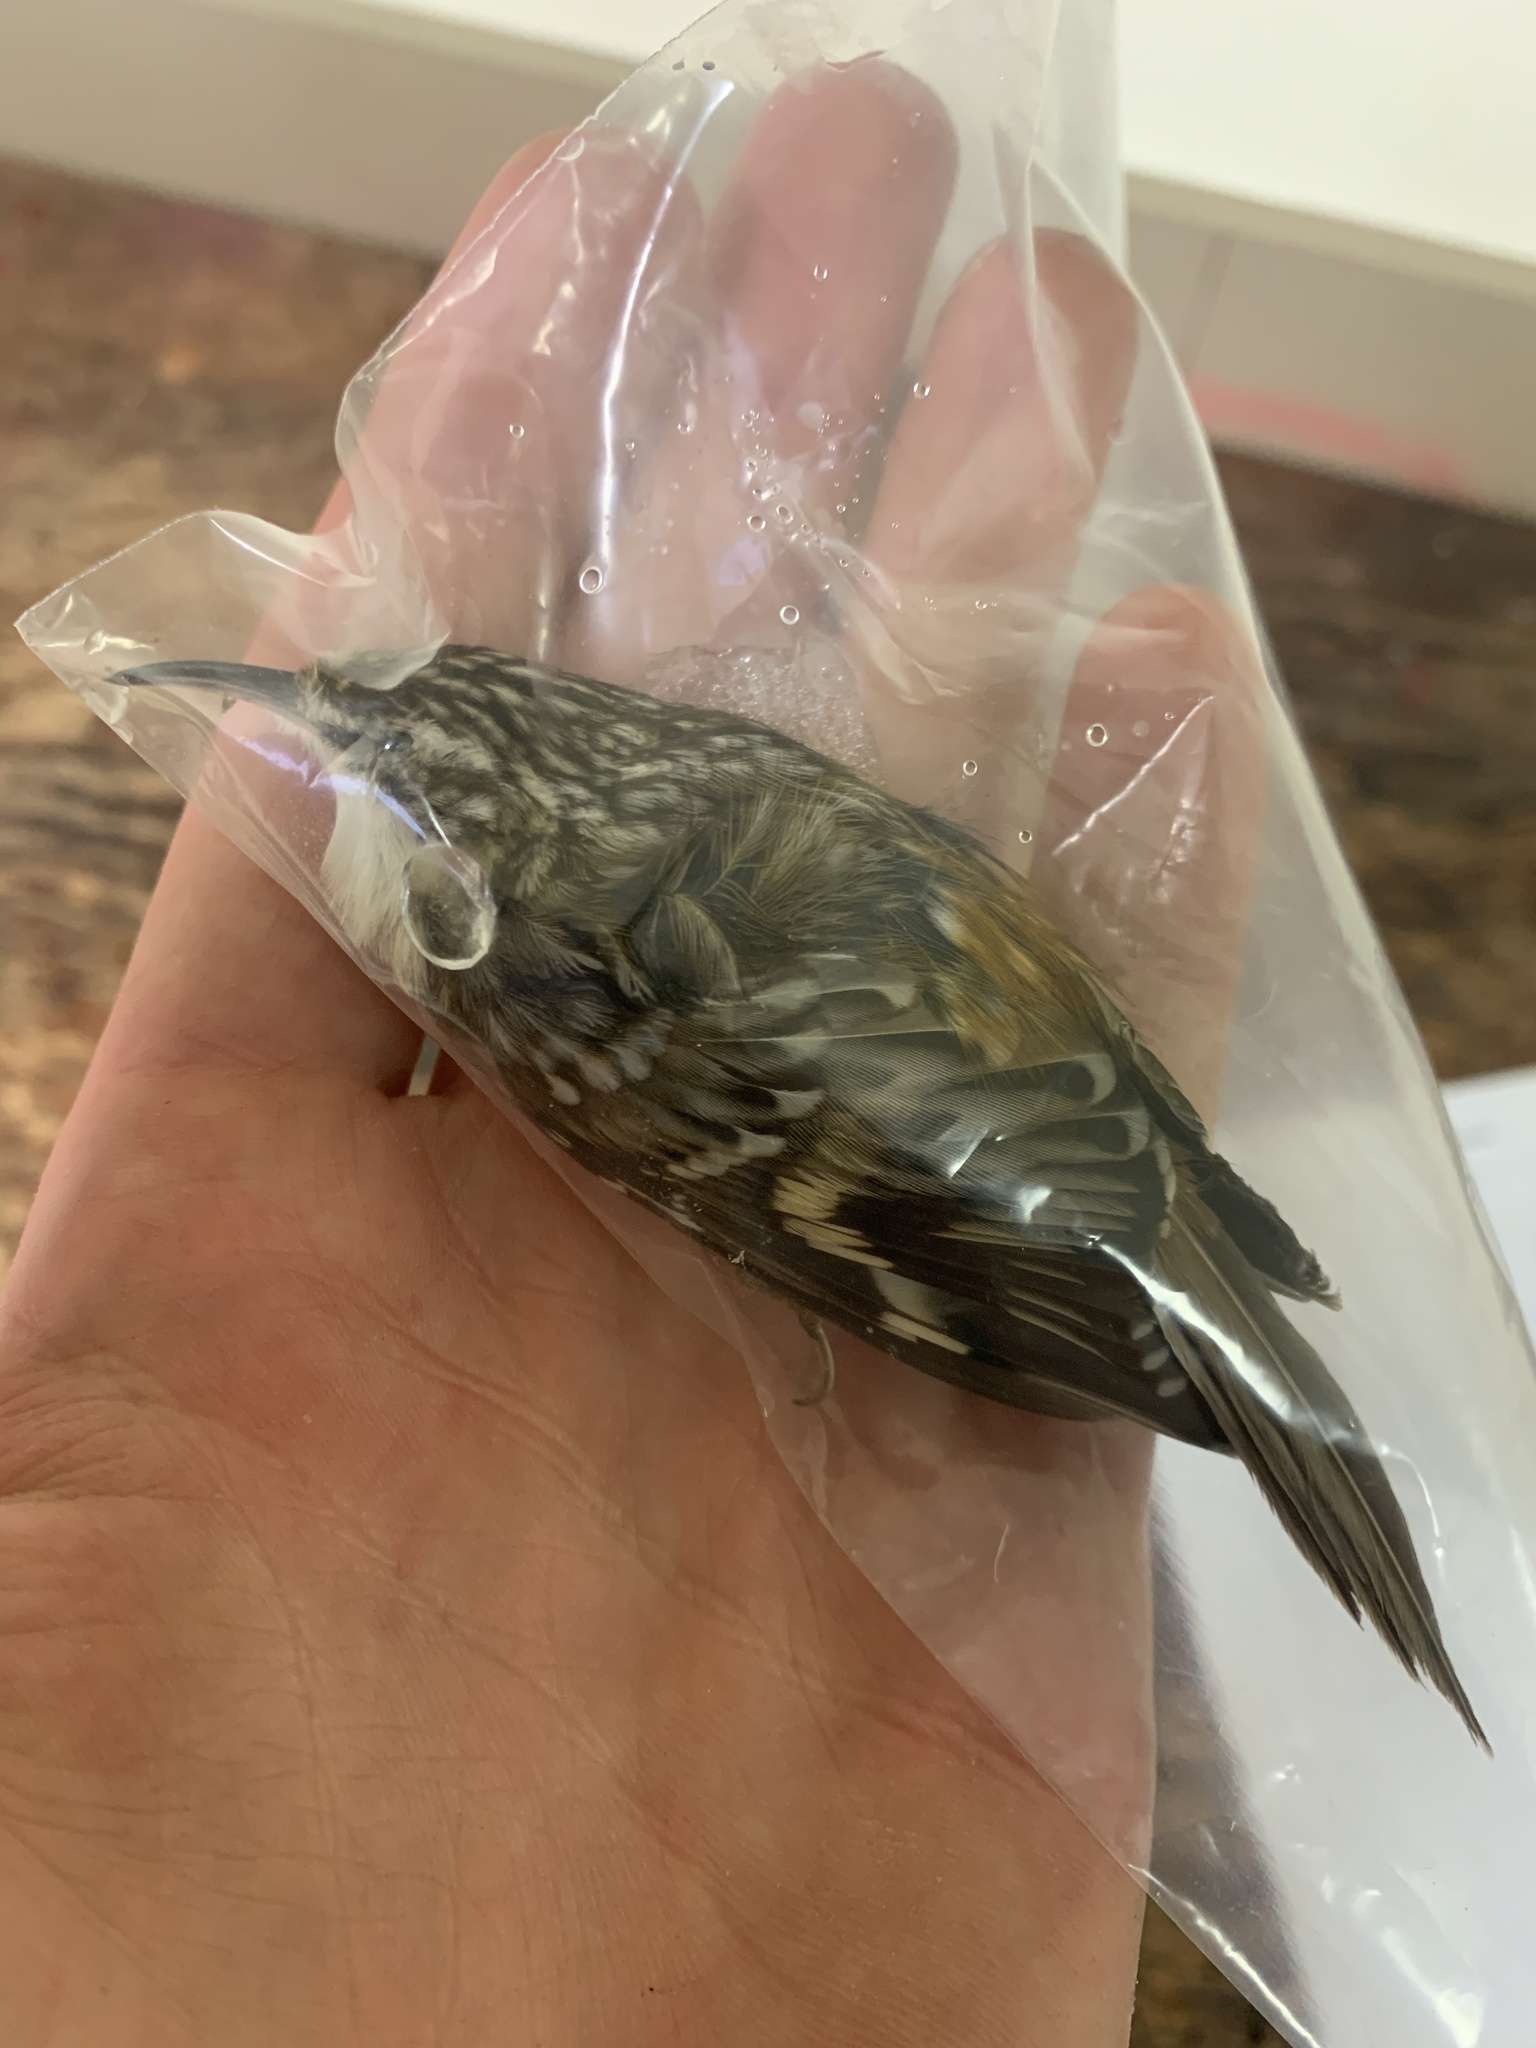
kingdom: Animalia
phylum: Chordata
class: Aves
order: Passeriformes
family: Certhiidae
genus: Certhia
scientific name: Certhia americana
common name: Brown creeper
